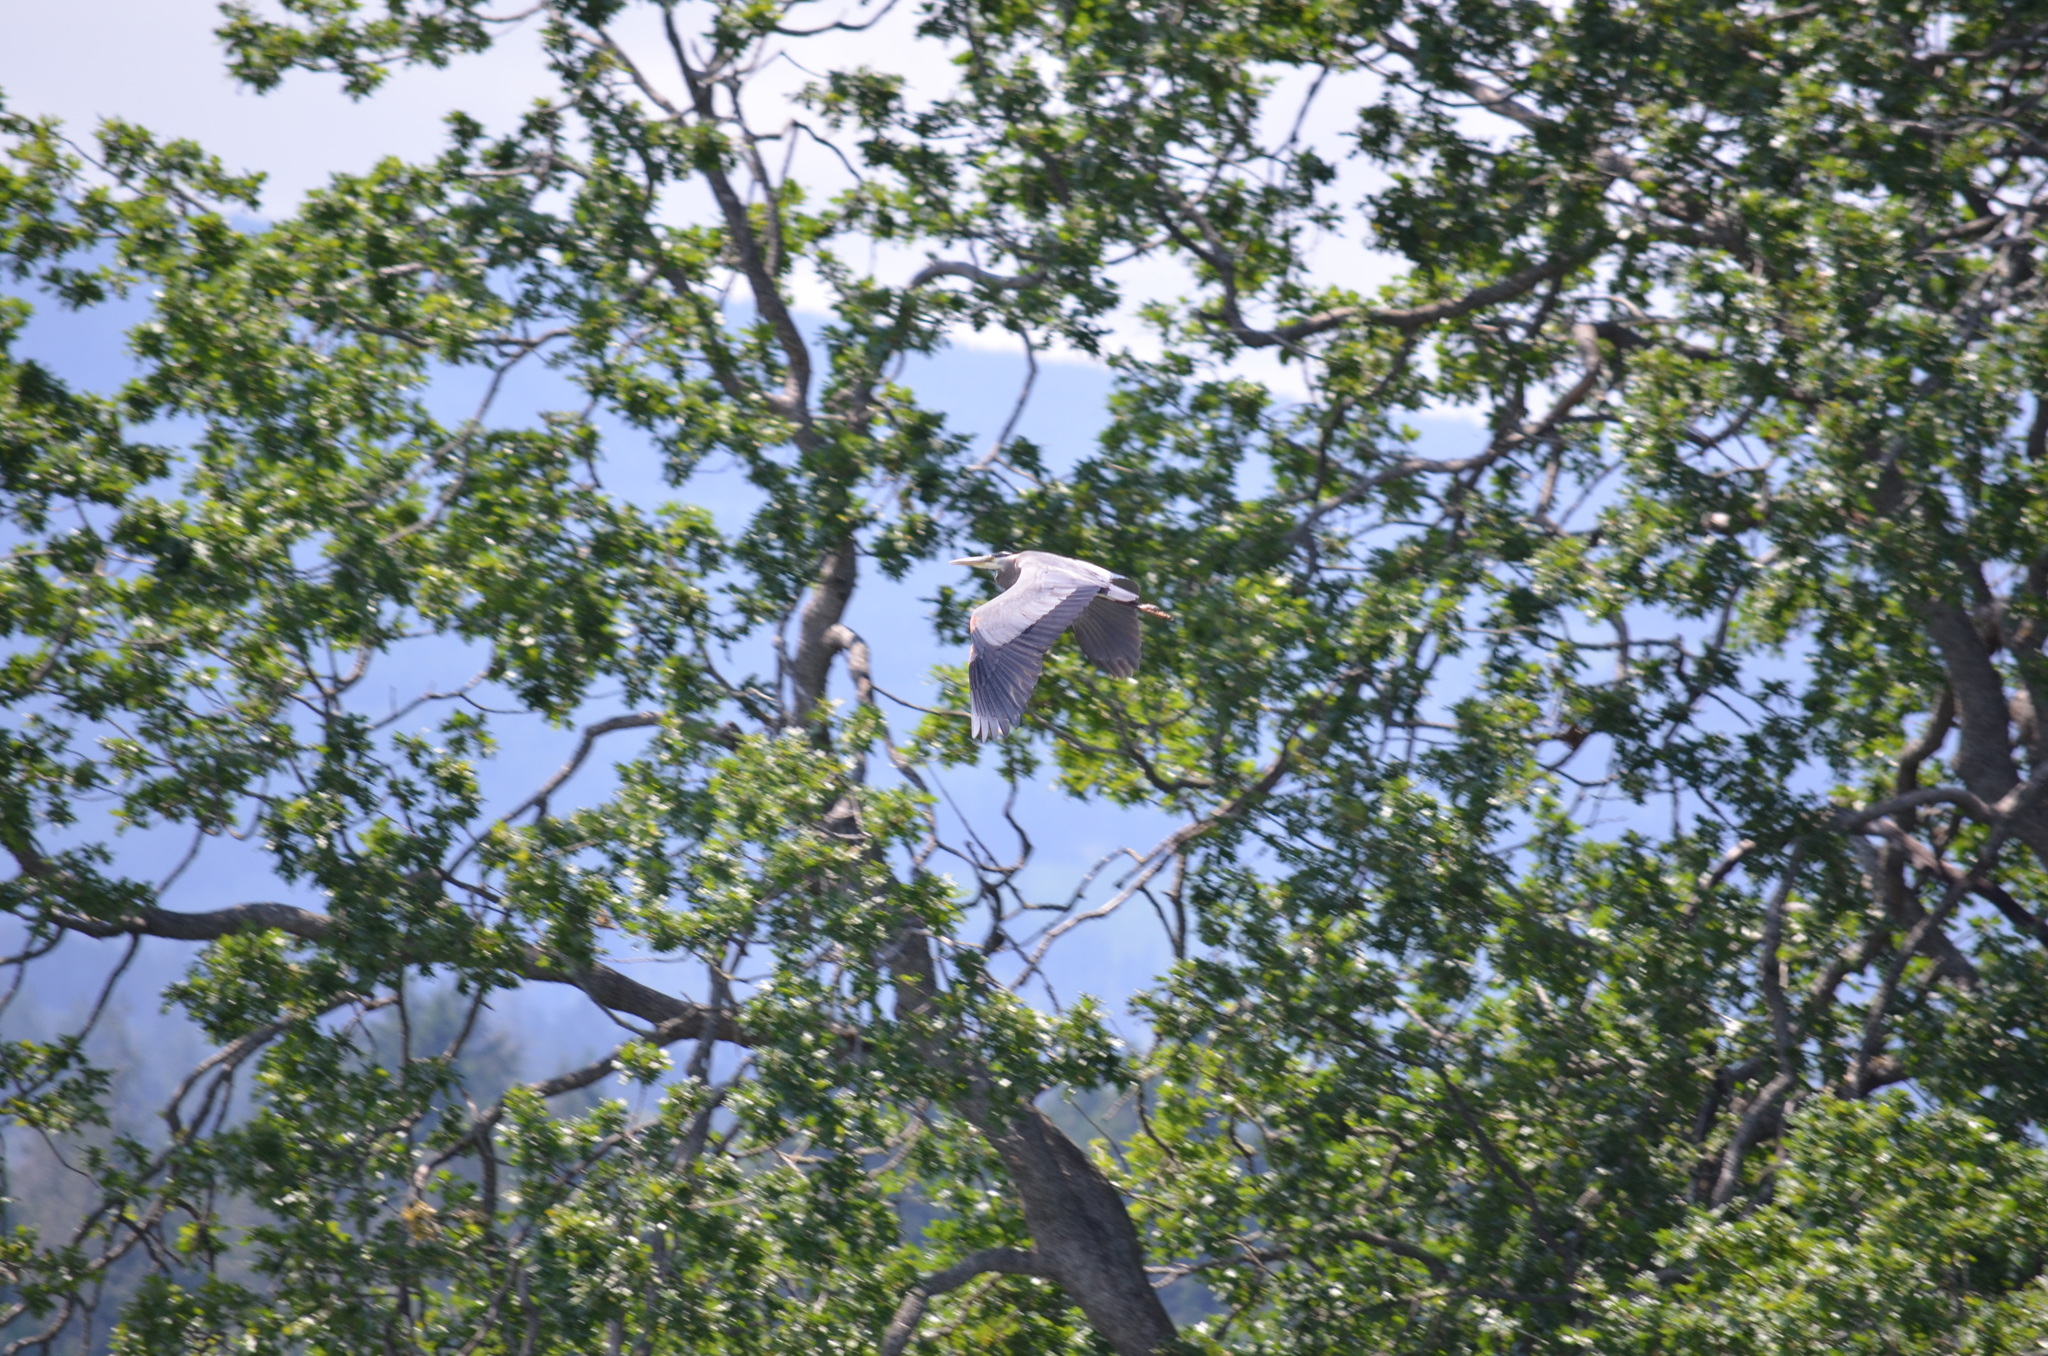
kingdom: Animalia
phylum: Chordata
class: Aves
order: Pelecaniformes
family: Ardeidae
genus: Ardea
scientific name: Ardea herodias
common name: Great blue heron
